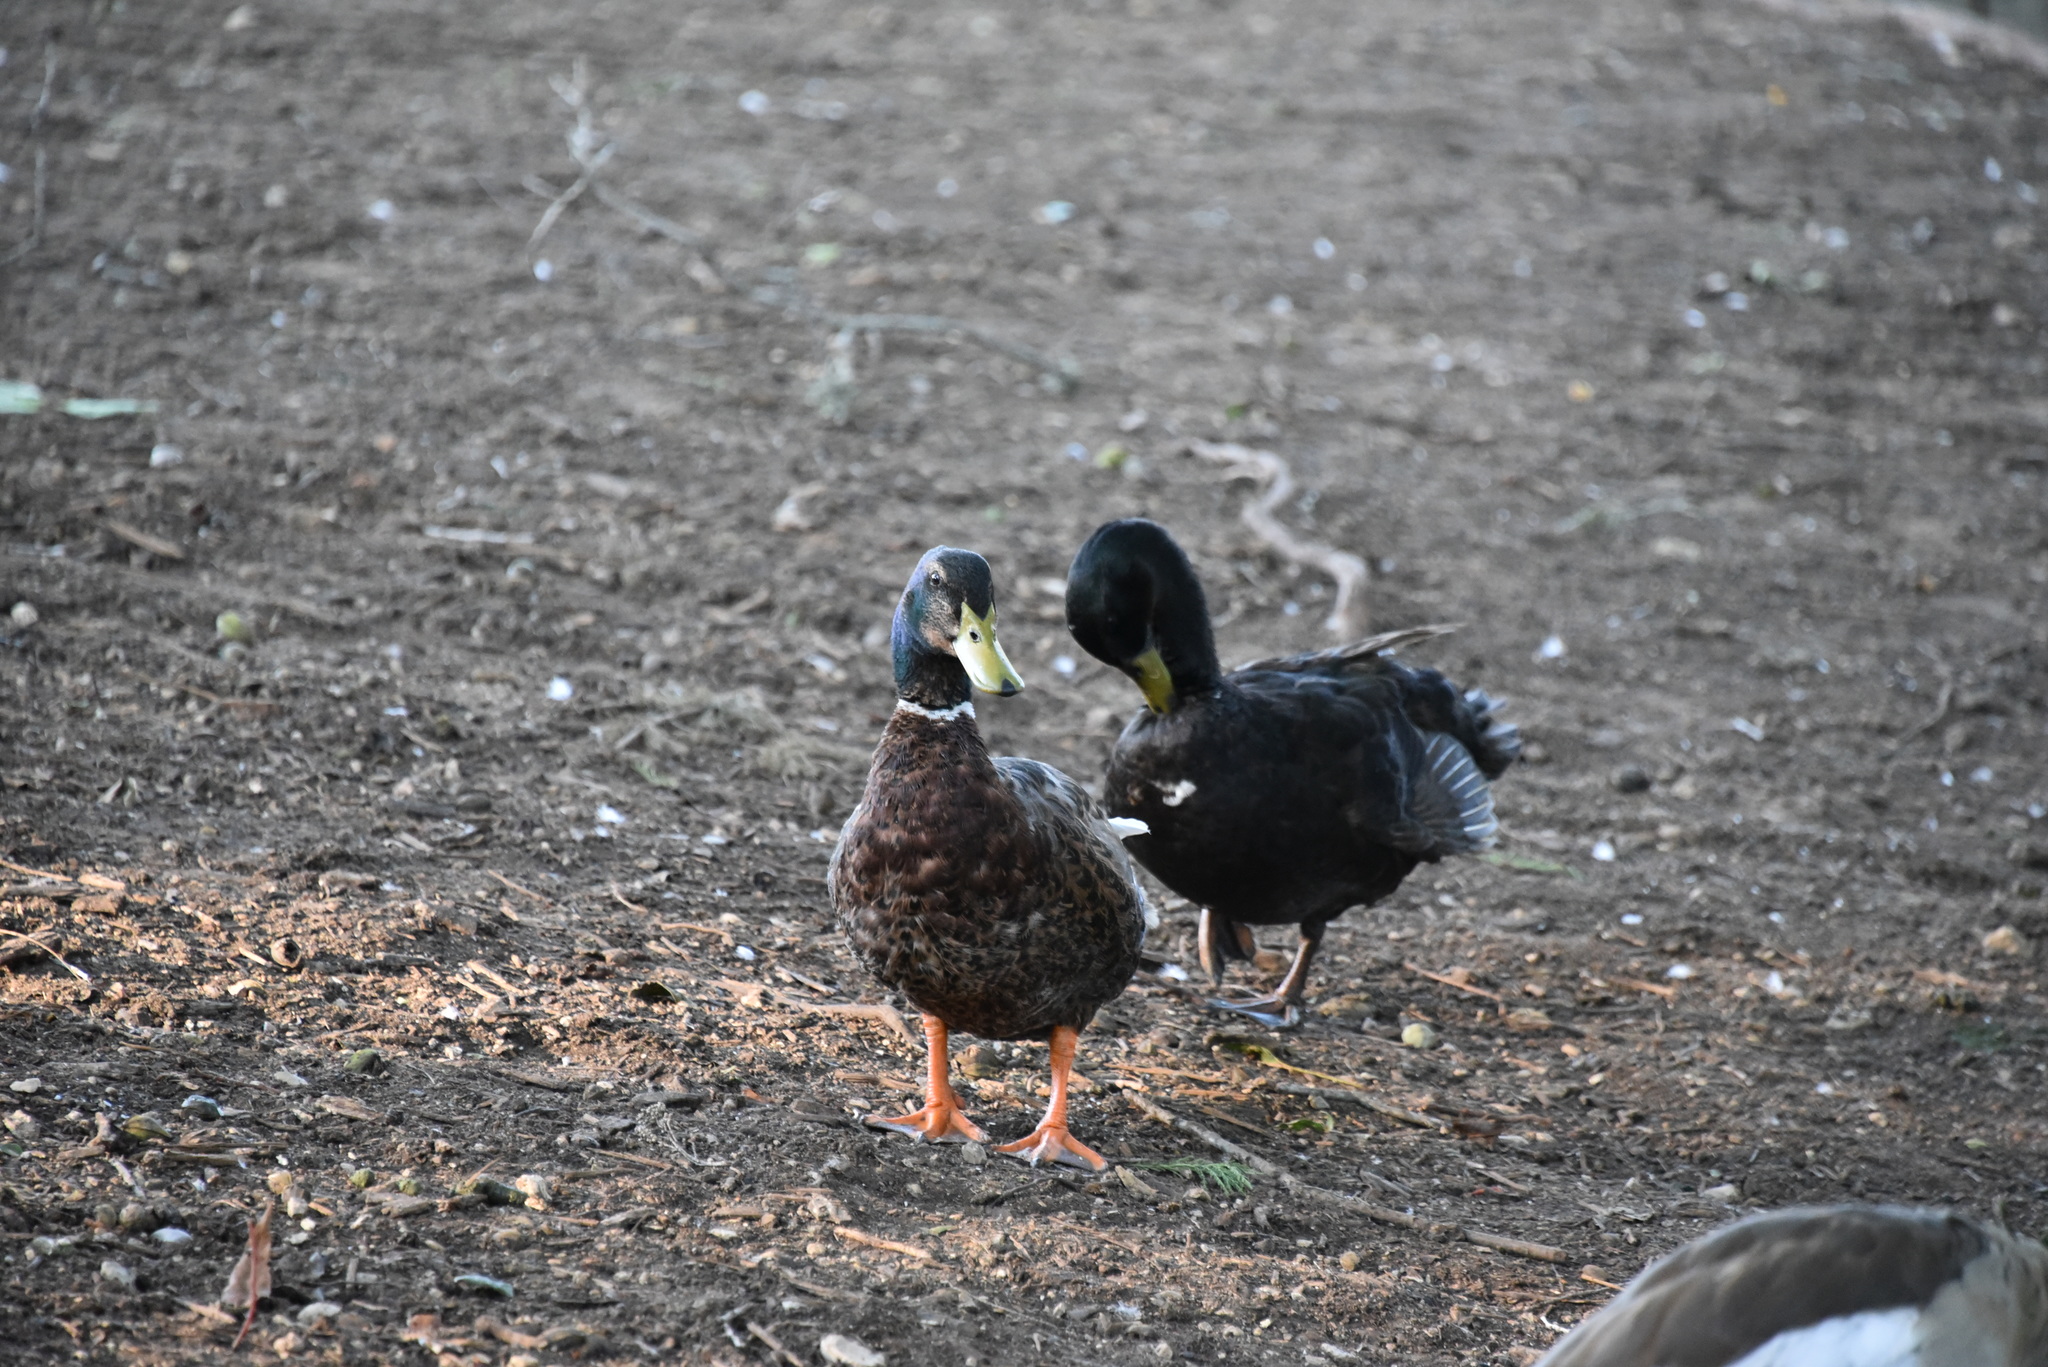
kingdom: Animalia
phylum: Chordata
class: Aves
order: Anseriformes
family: Anatidae
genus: Anas
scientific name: Anas platyrhynchos
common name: Mallard
